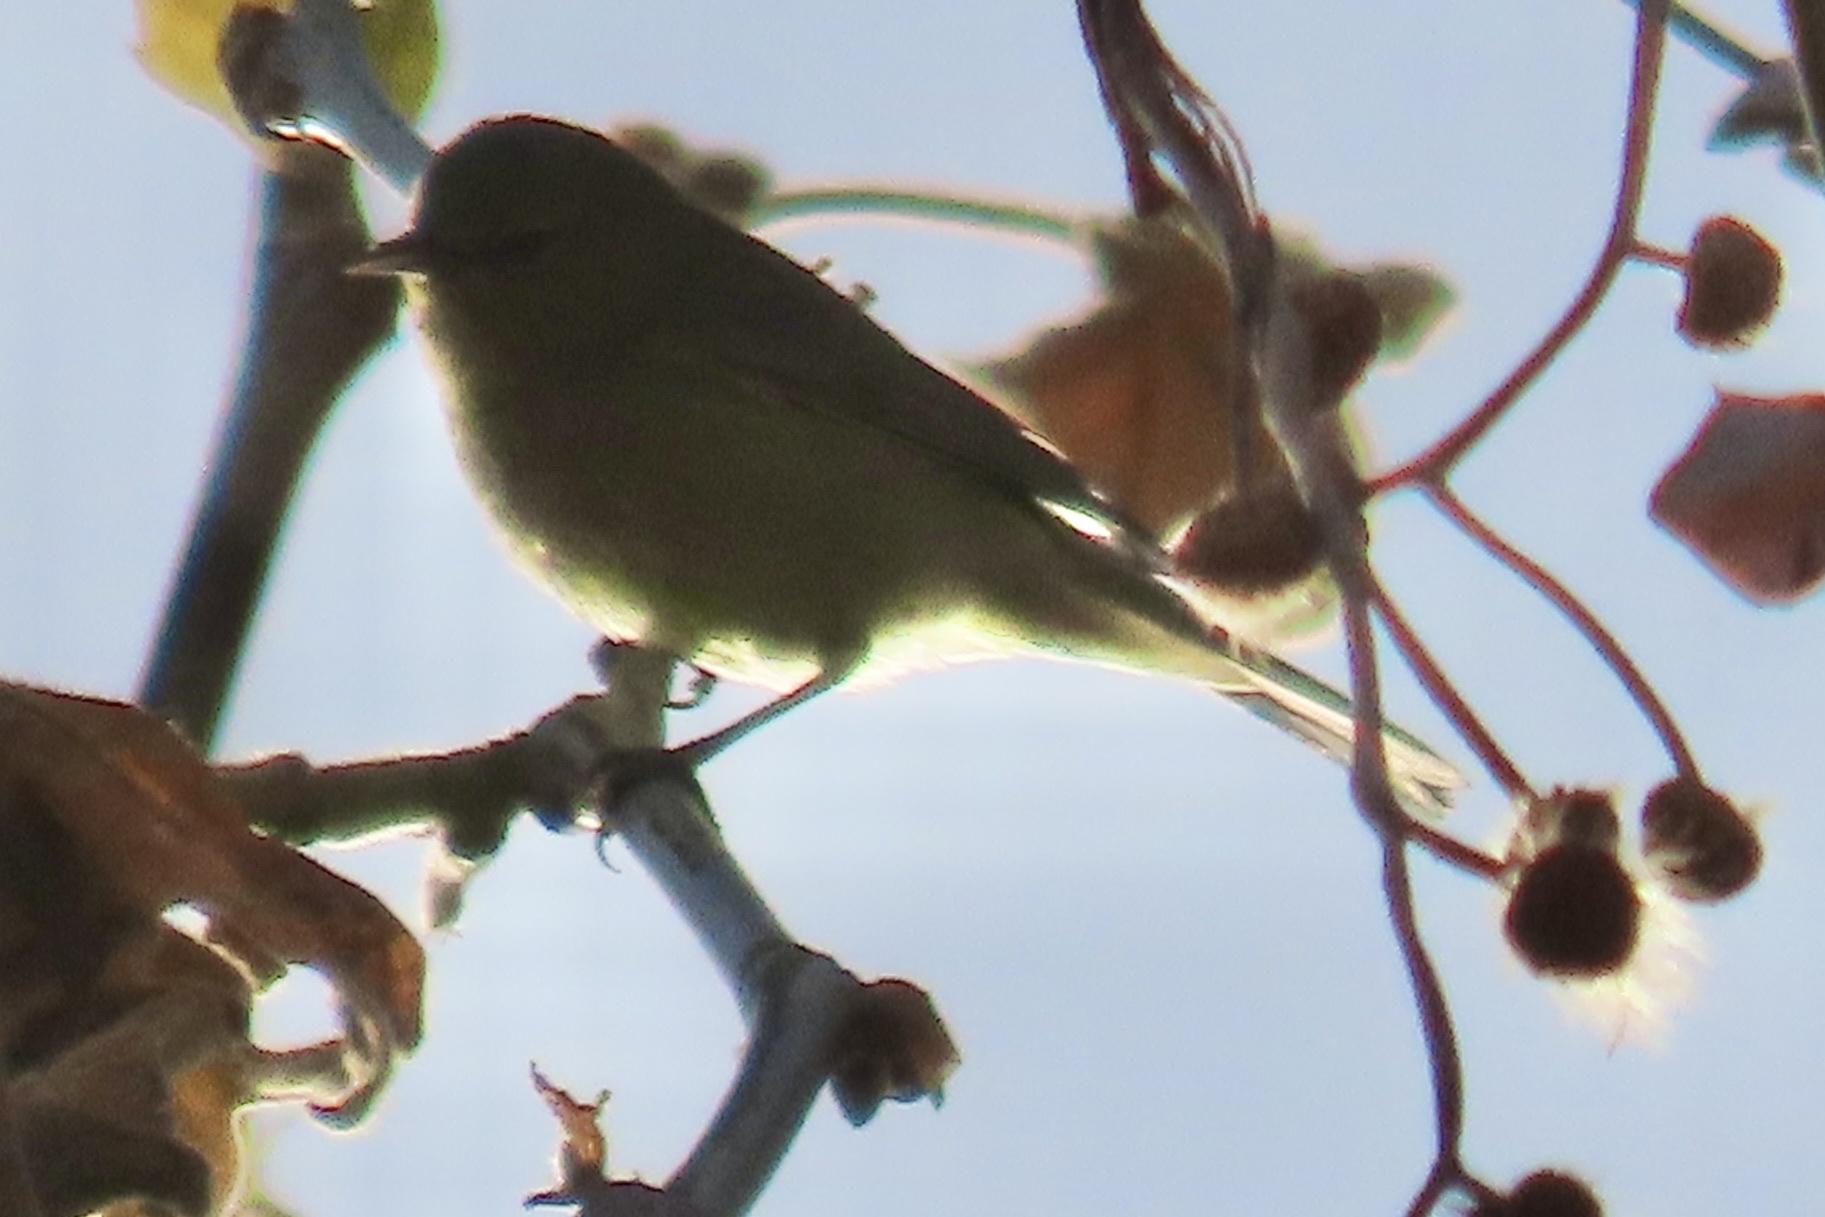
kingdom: Animalia
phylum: Chordata
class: Aves
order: Passeriformes
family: Parulidae
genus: Leiothlypis
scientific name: Leiothlypis celata
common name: Orange-crowned warbler
